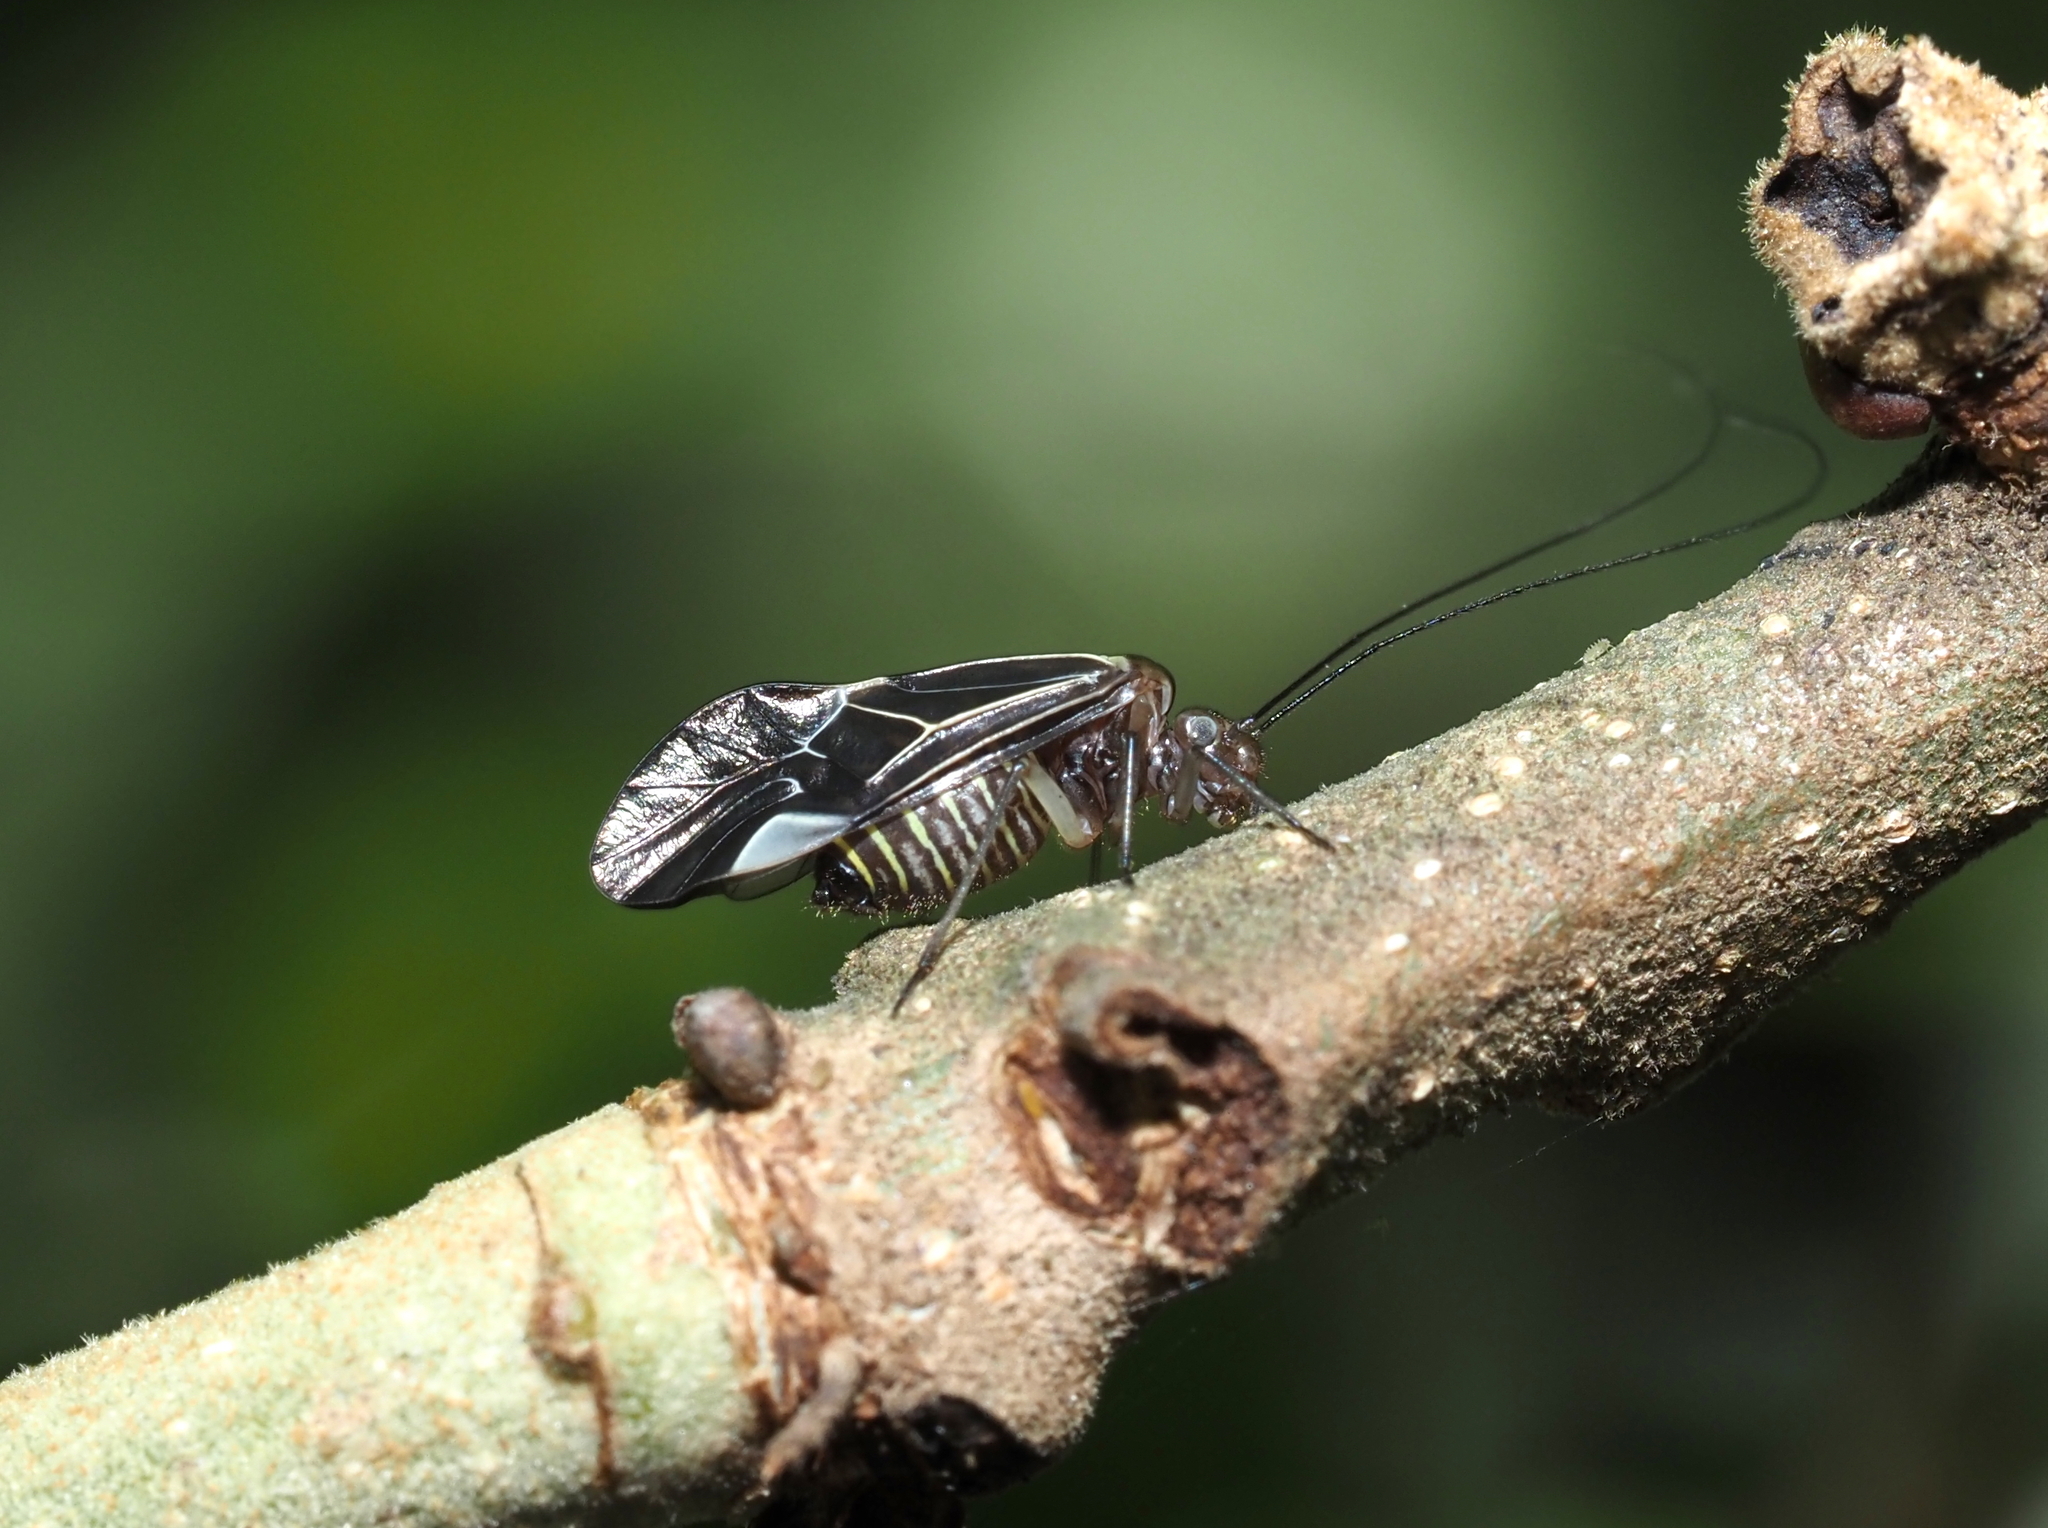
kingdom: Animalia
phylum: Arthropoda
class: Insecta
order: Psocodea
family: Psocidae
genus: Cerastipsocus
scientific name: Cerastipsocus venosus
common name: Tree cattle
